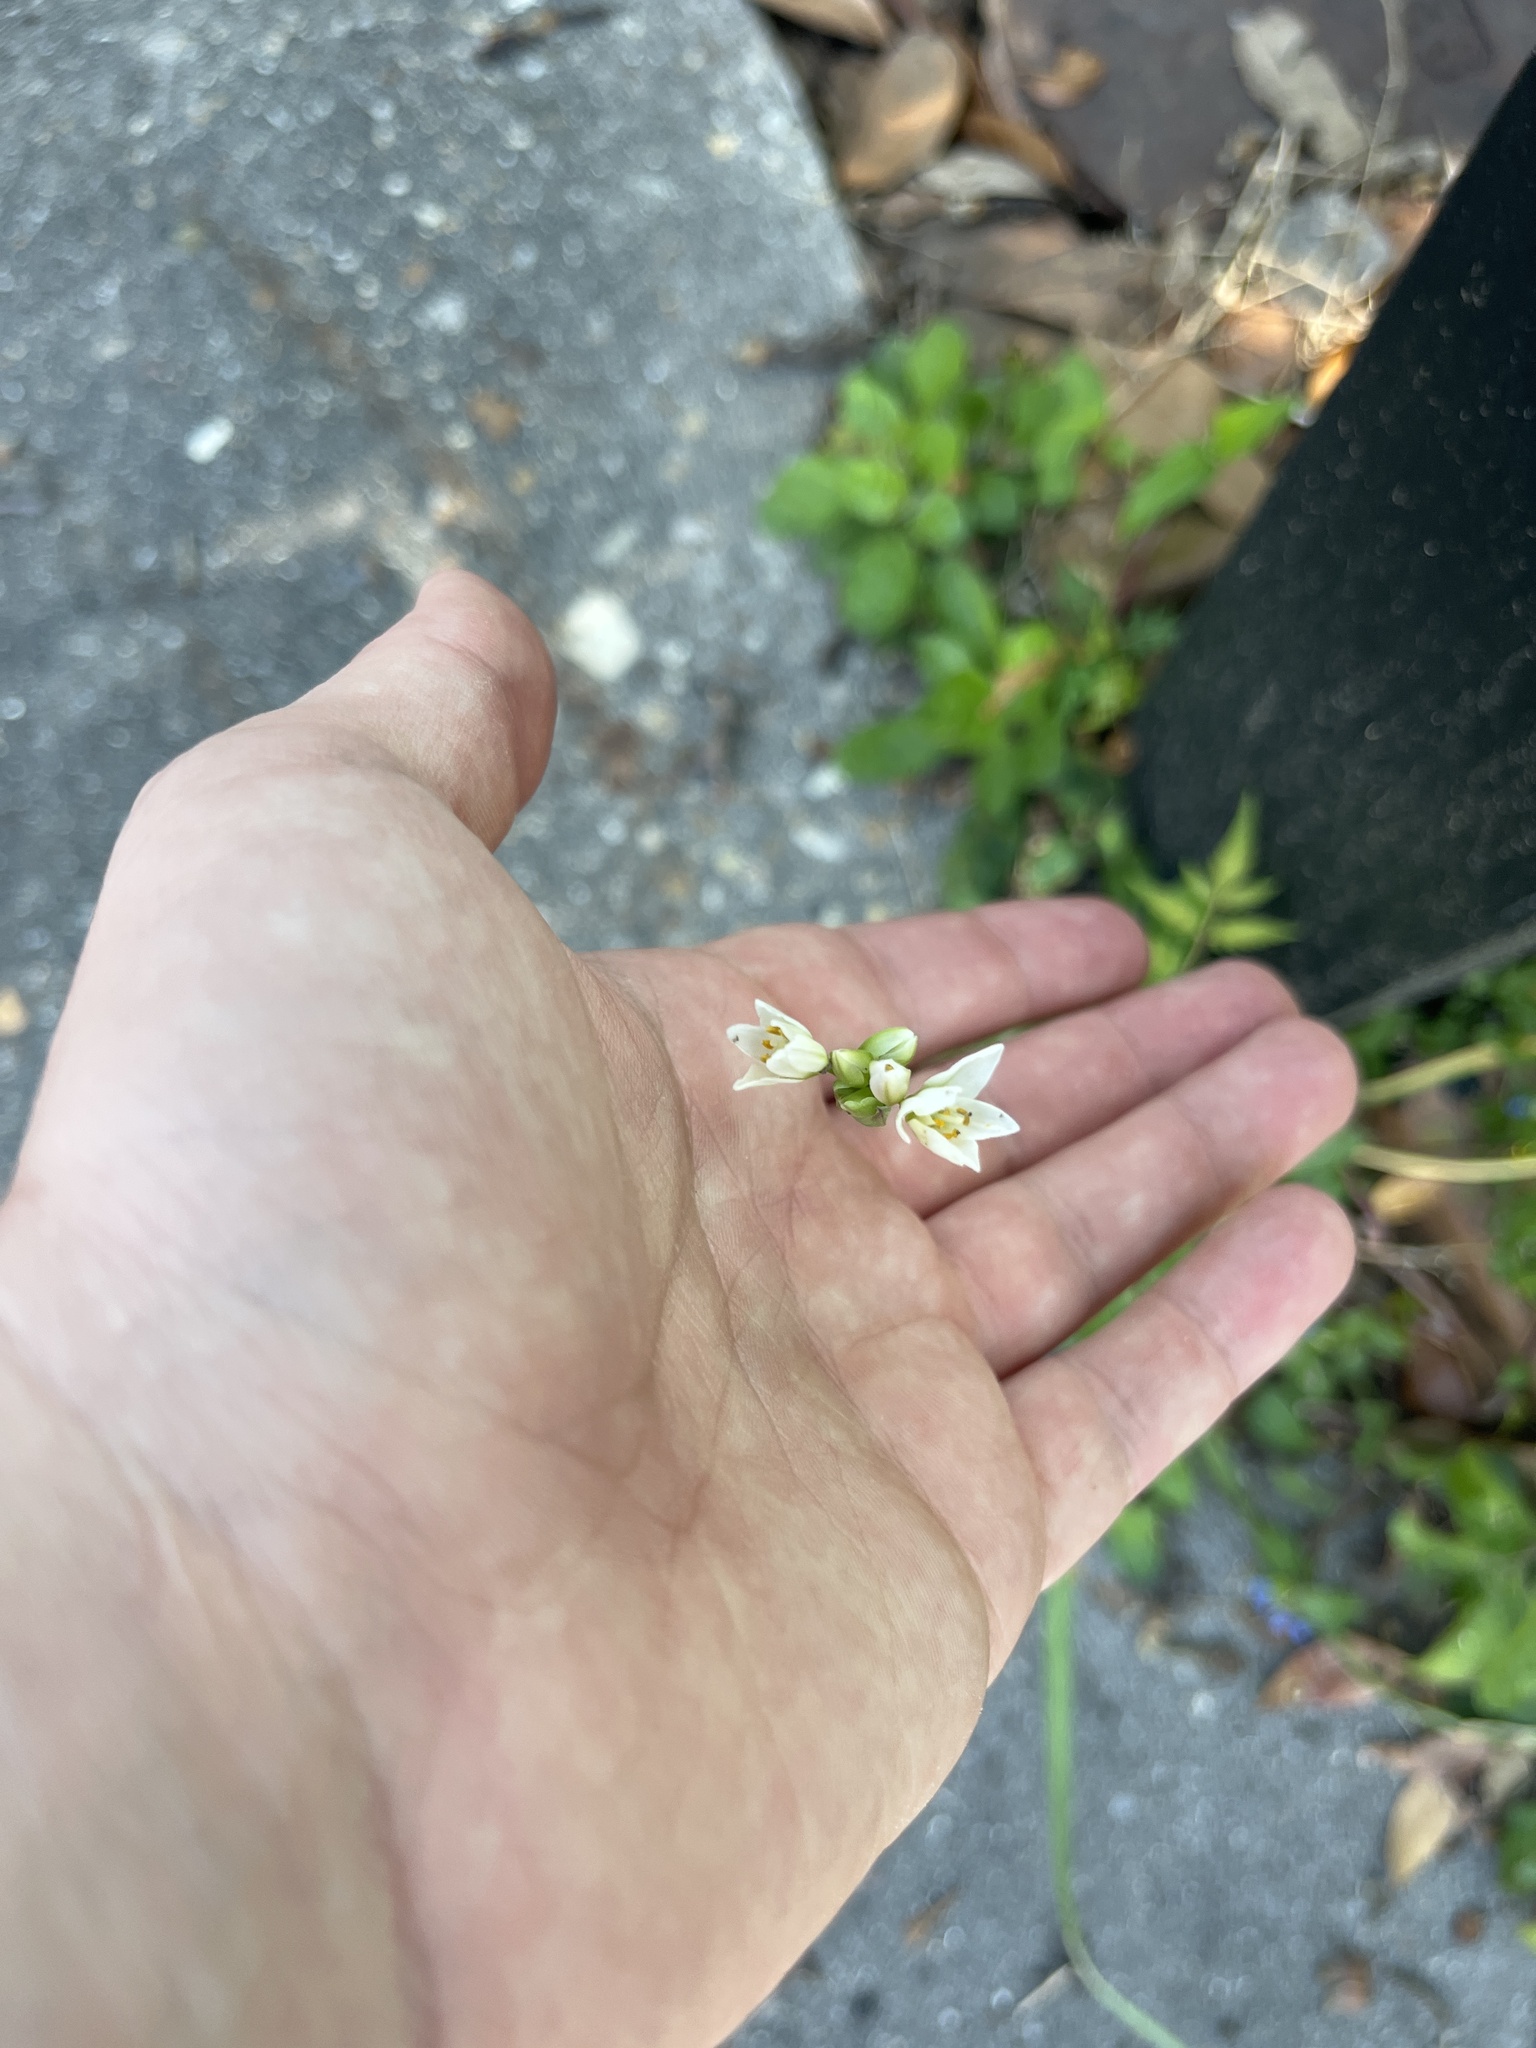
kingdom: Plantae
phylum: Tracheophyta
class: Liliopsida
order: Asparagales
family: Amaryllidaceae
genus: Nothoscordum
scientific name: Nothoscordum gracile
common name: Slender false garlic
